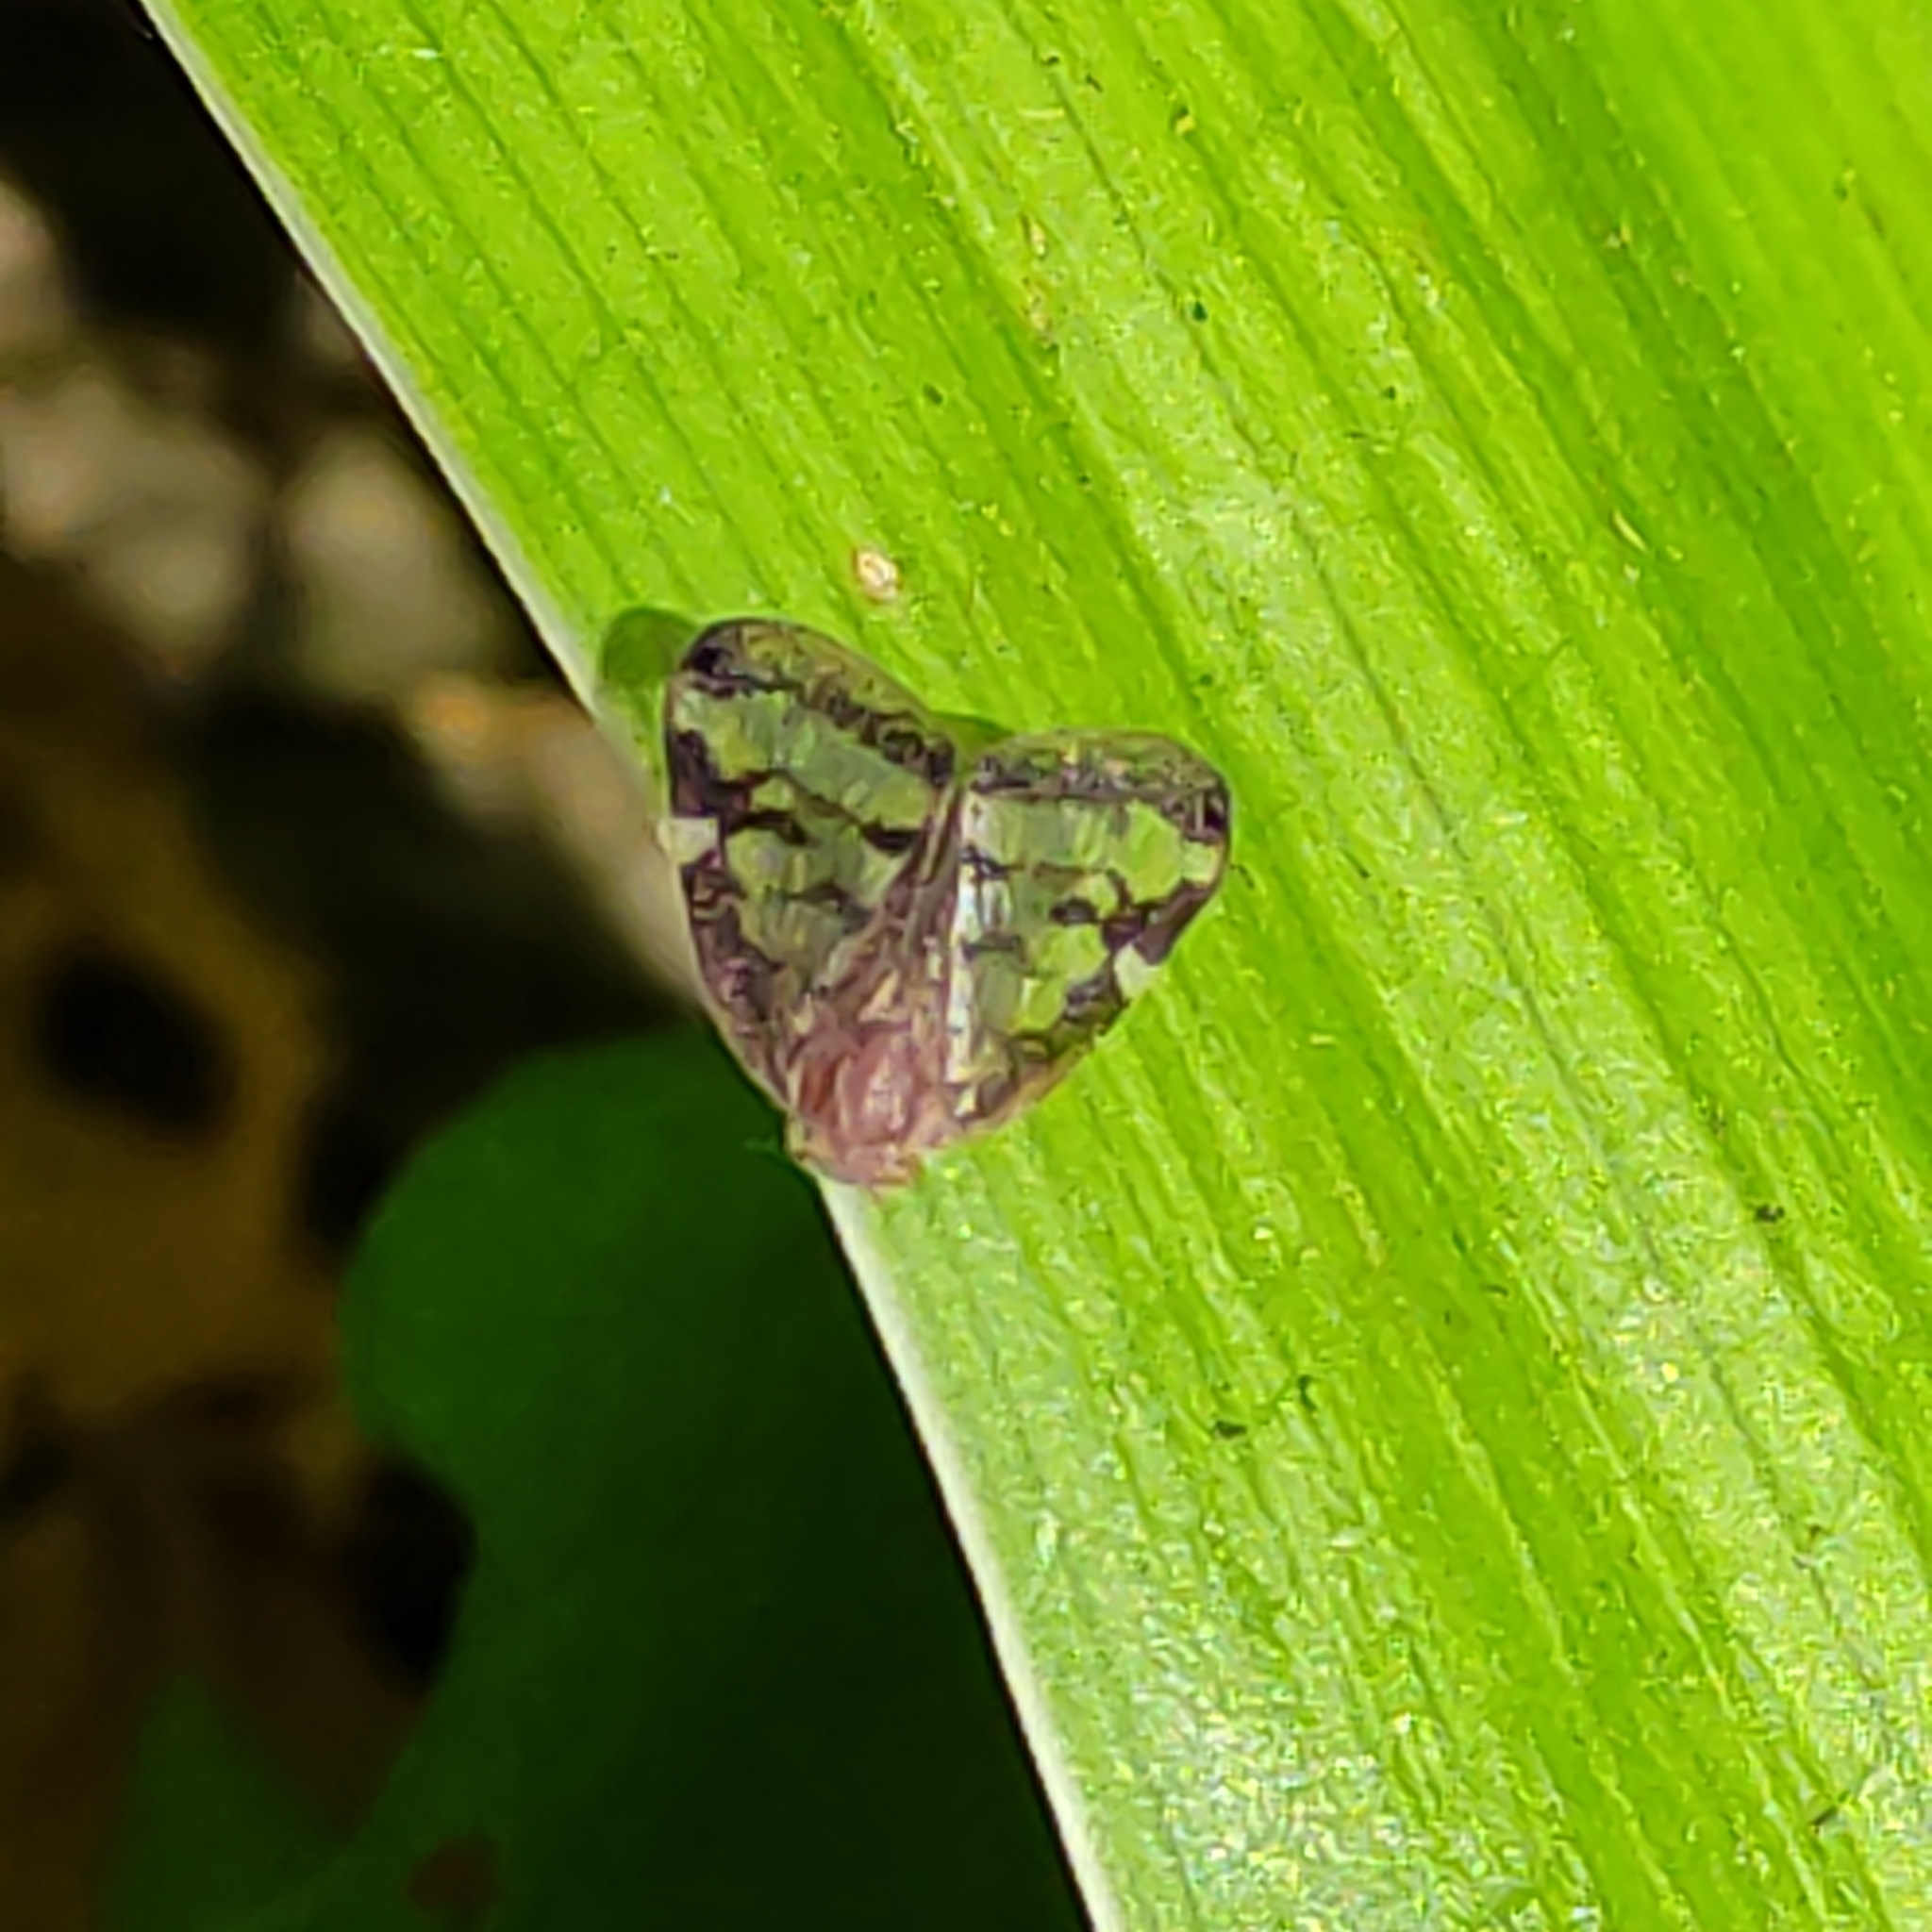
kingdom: Animalia
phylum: Arthropoda
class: Insecta
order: Hemiptera
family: Ricaniidae
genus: Scolypopa
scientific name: Scolypopa australis
